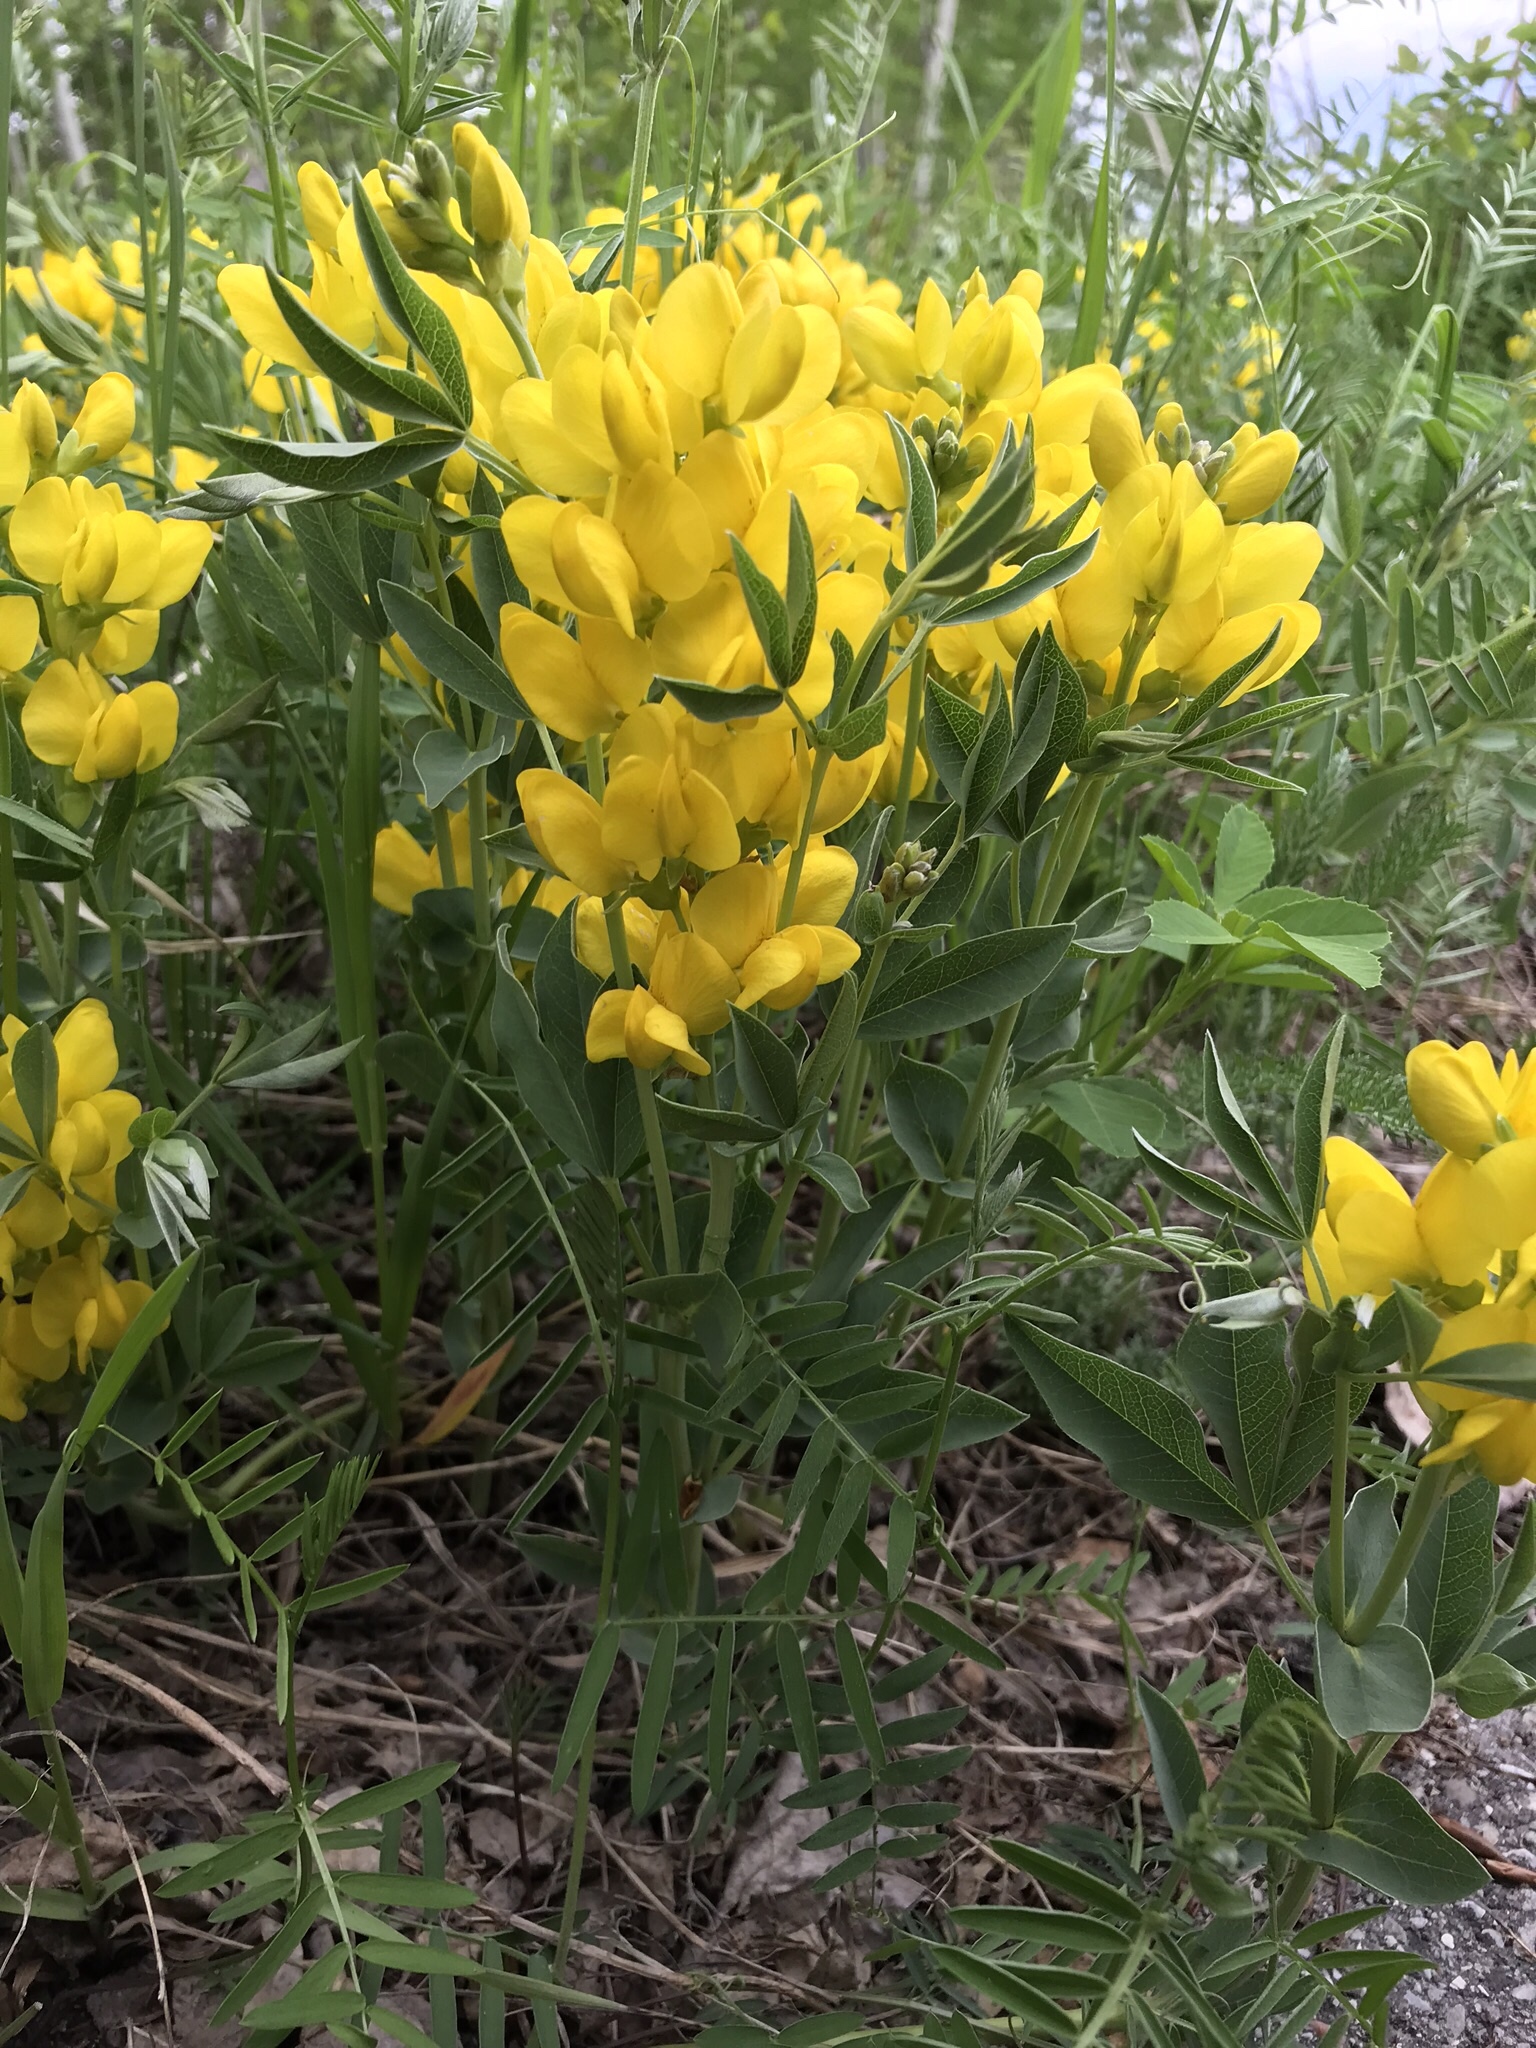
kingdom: Plantae
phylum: Tracheophyta
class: Magnoliopsida
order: Fabales
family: Fabaceae
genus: Thermopsis
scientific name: Thermopsis rhombifolia
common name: Circle-pod-pea
